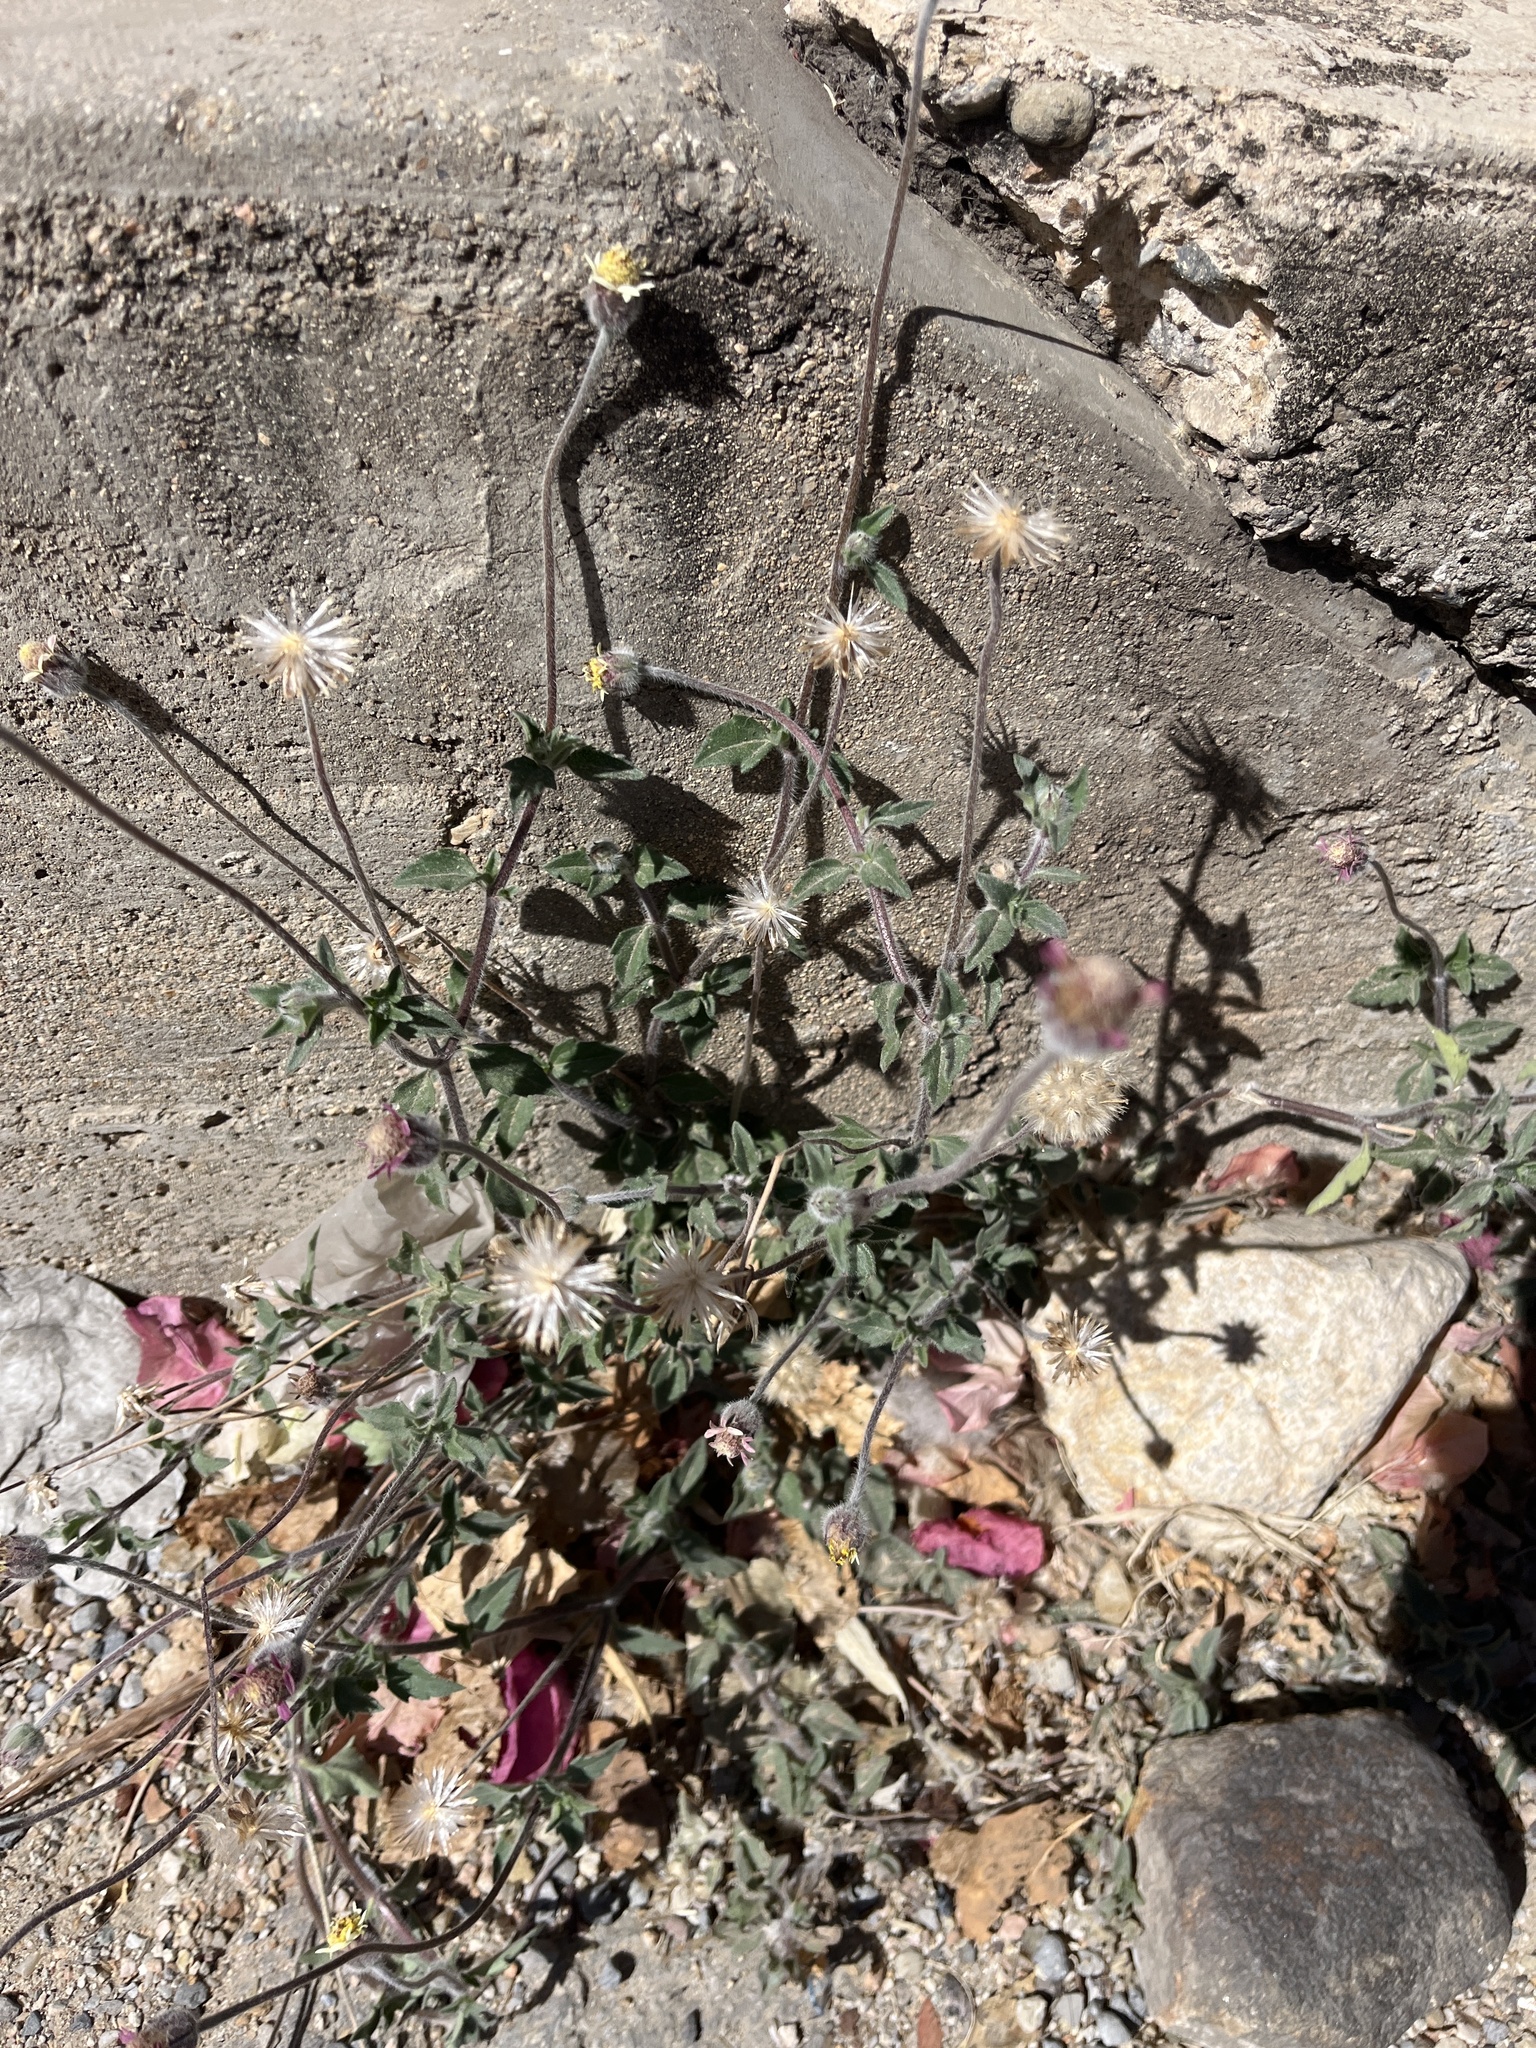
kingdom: Plantae
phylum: Tracheophyta
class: Magnoliopsida
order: Asterales
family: Asteraceae
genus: Tridax
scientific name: Tridax procumbens
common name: Coatbuttons
